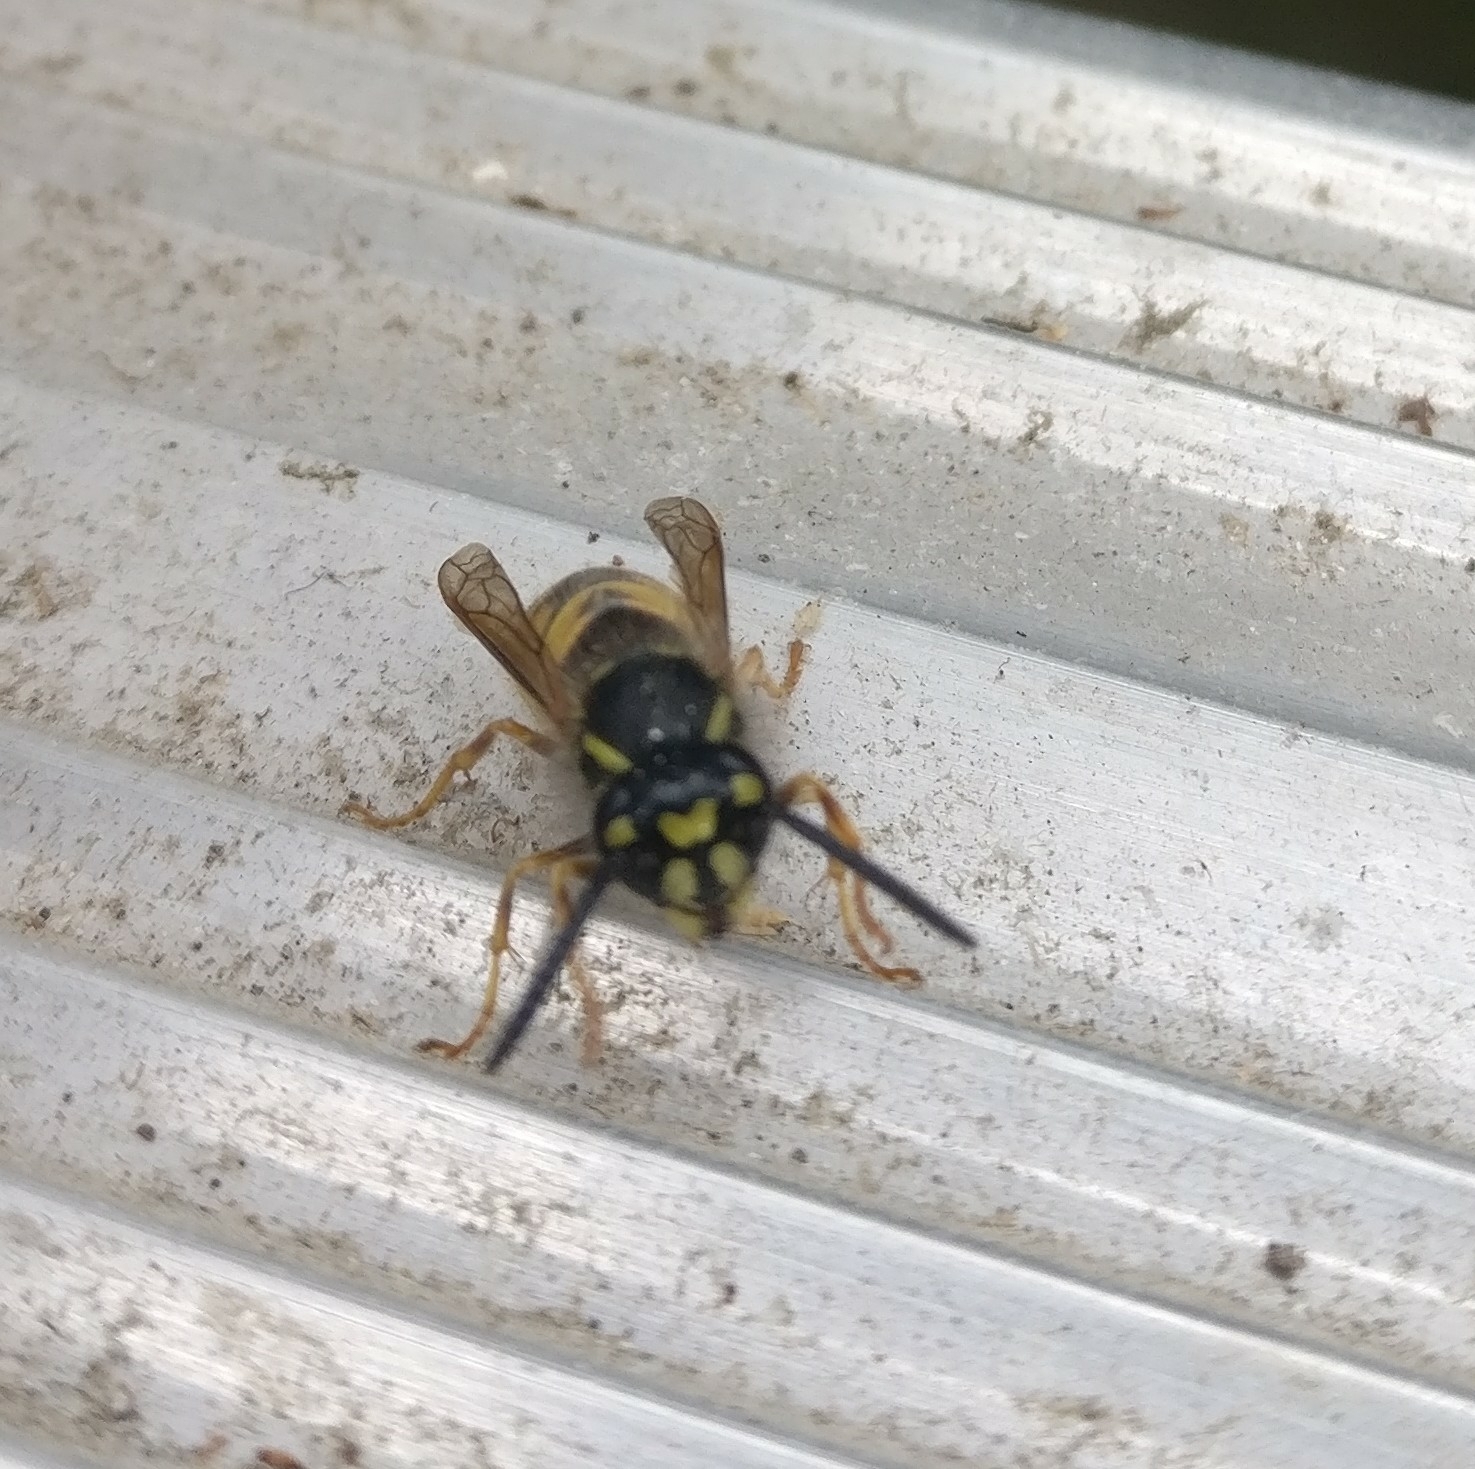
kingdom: Animalia
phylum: Arthropoda
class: Insecta
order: Hymenoptera
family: Vespidae
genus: Vespula
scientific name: Vespula vulgaris
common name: Common wasp
